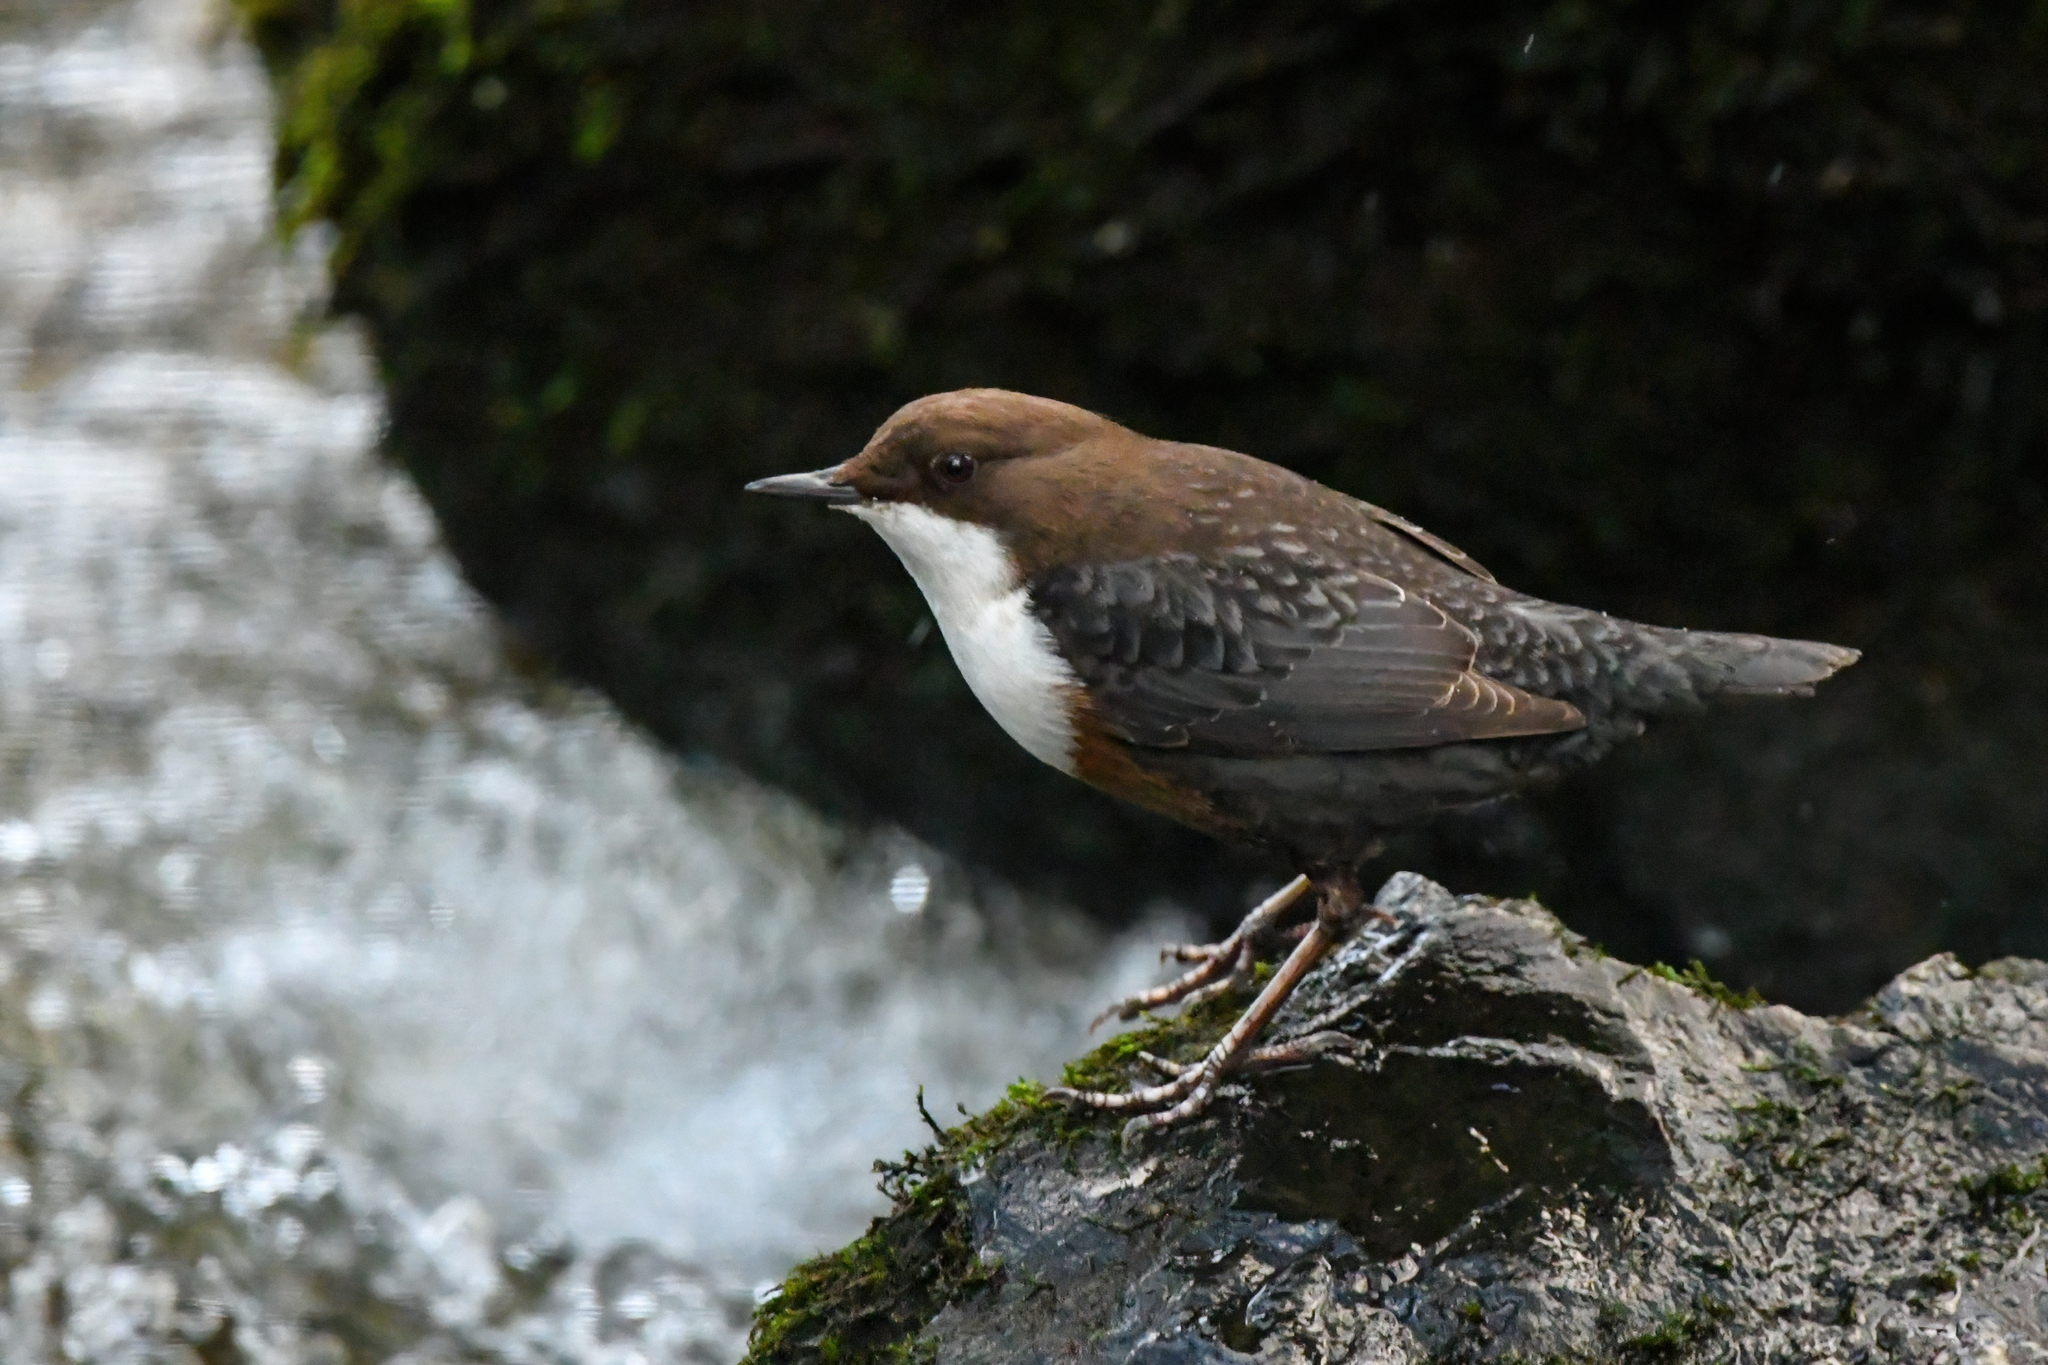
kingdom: Animalia
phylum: Chordata
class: Aves
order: Passeriformes
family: Cinclidae
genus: Cinclus
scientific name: Cinclus cinclus
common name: White-throated dipper
